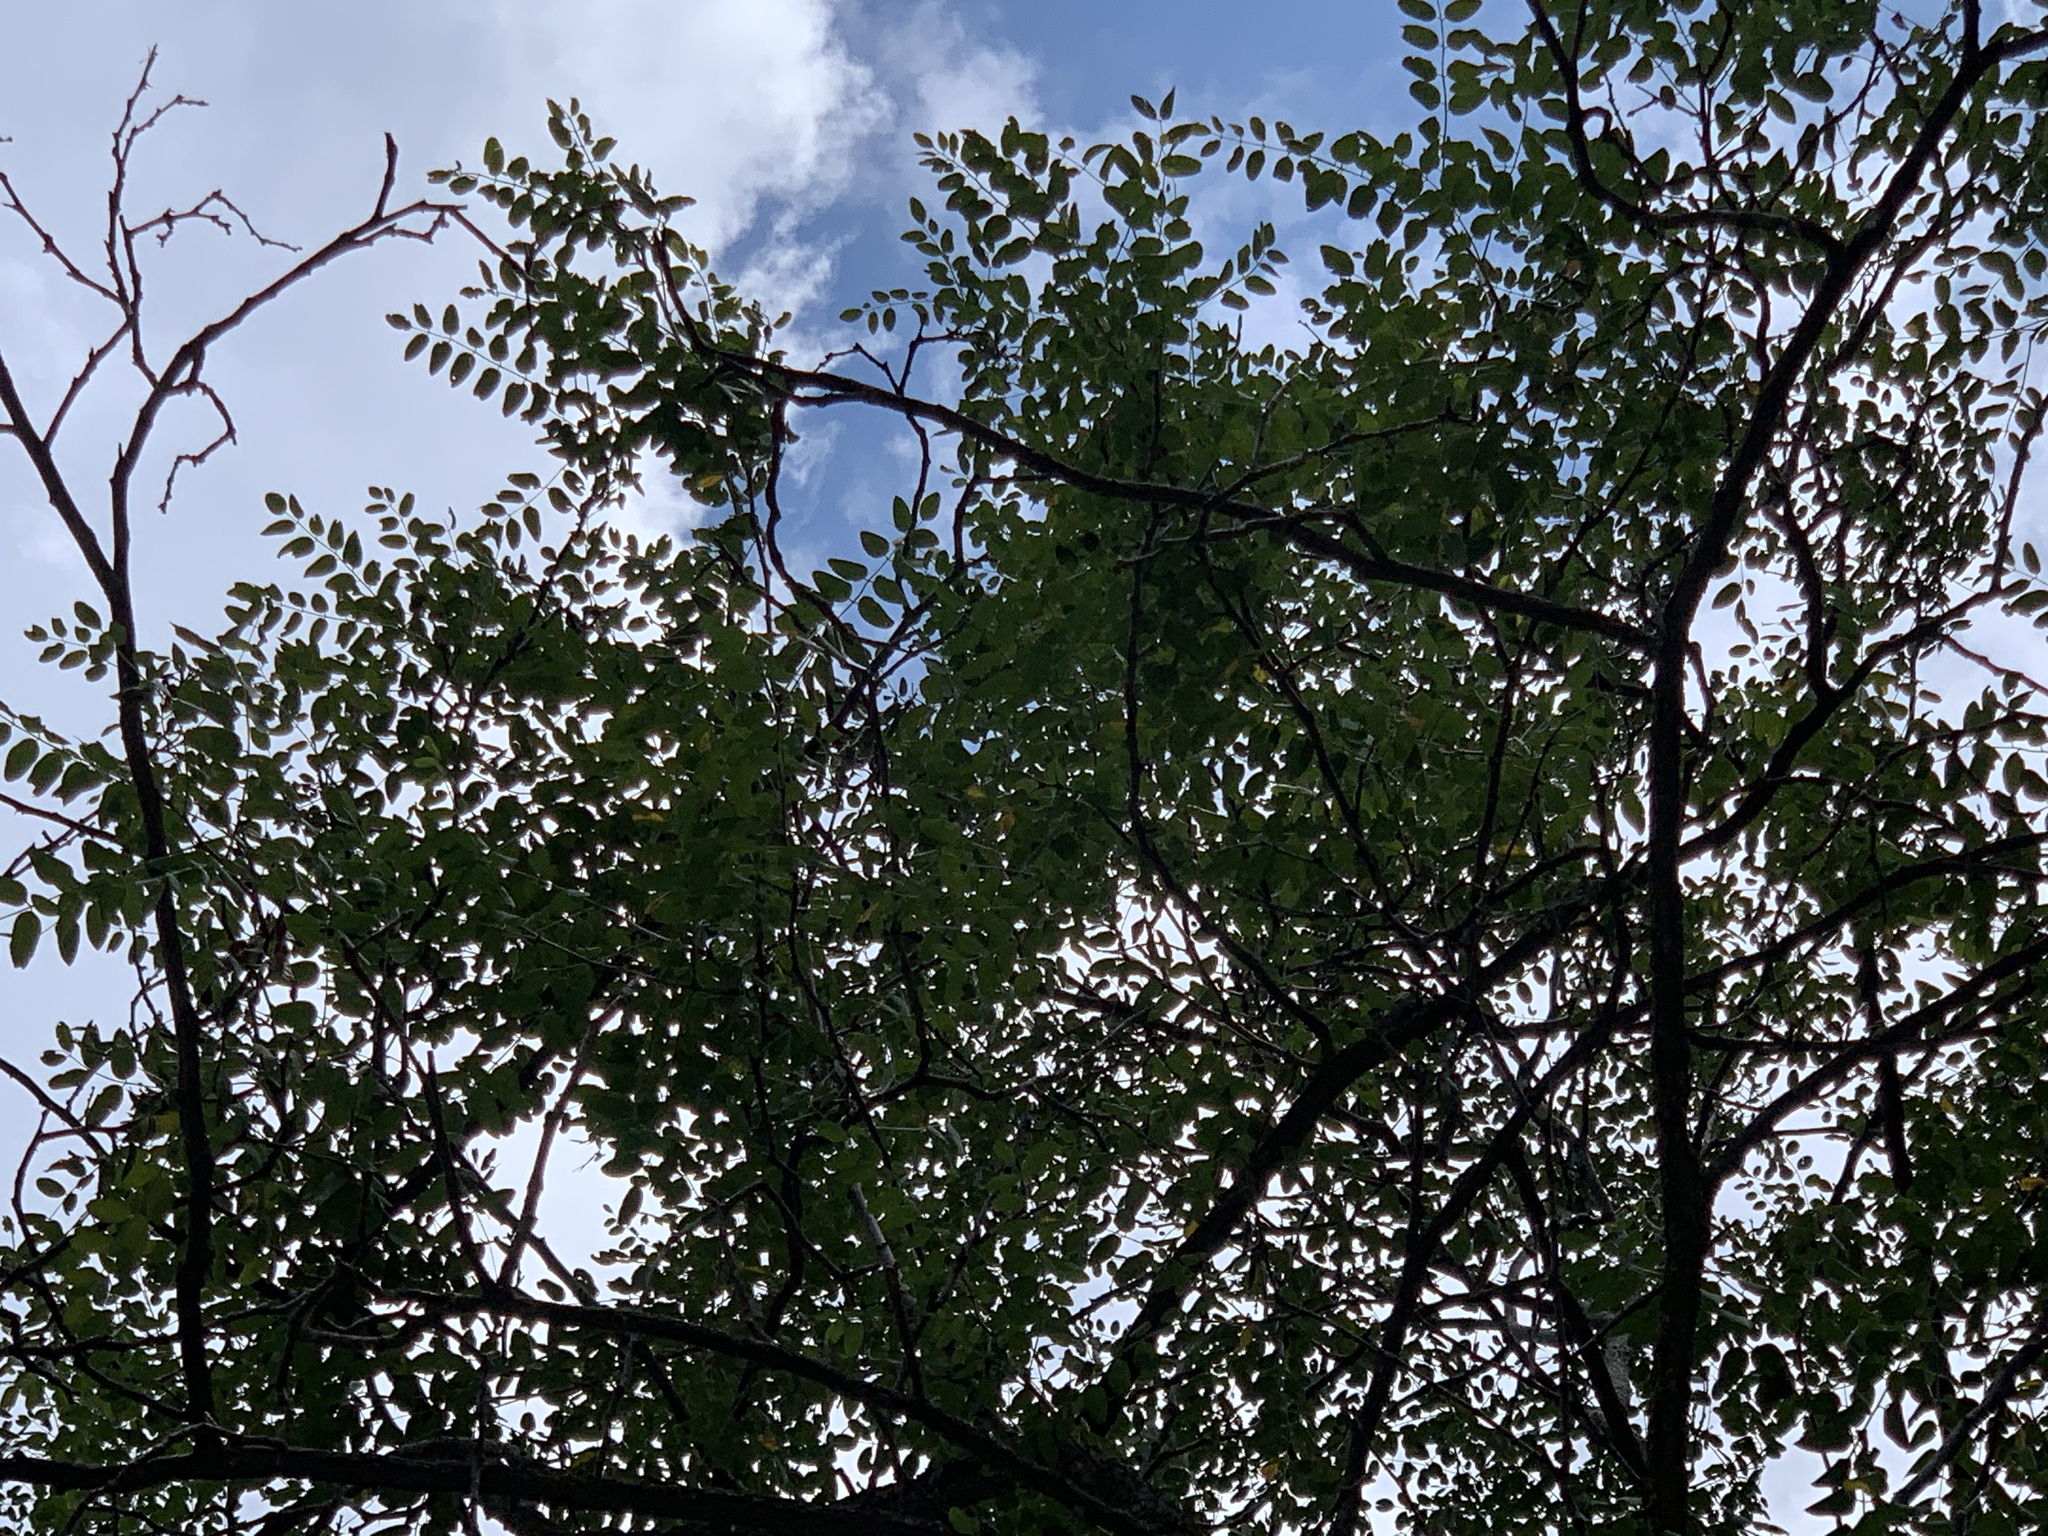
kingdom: Plantae
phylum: Tracheophyta
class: Magnoliopsida
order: Fabales
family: Fabaceae
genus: Robinia
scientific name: Robinia neomexicana
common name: New mexico locust
